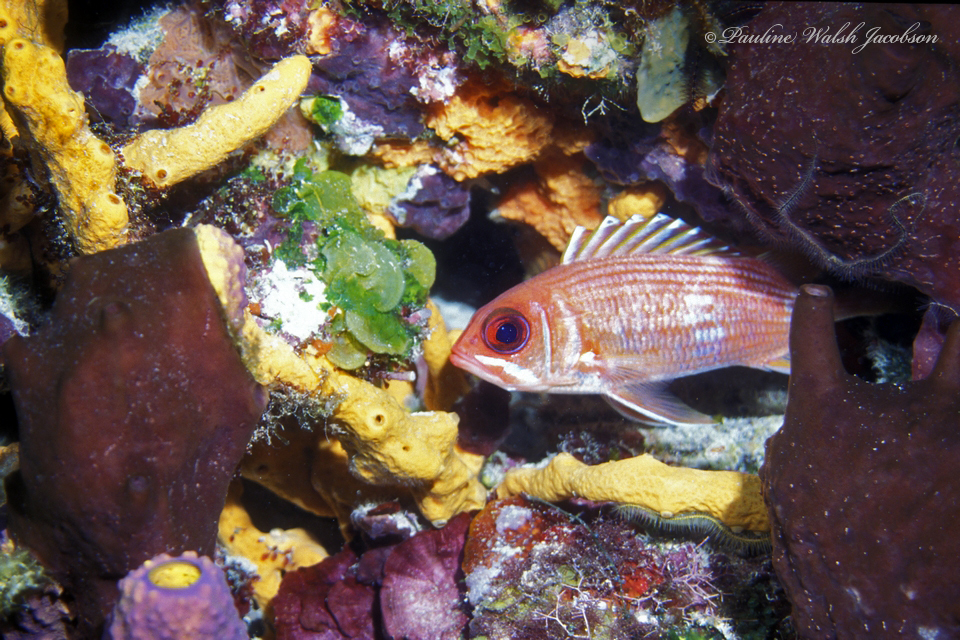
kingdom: Animalia
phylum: Chordata
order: Beryciformes
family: Holocentridae
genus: Holocentrus
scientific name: Holocentrus rufus
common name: Longspine squirrelfish
